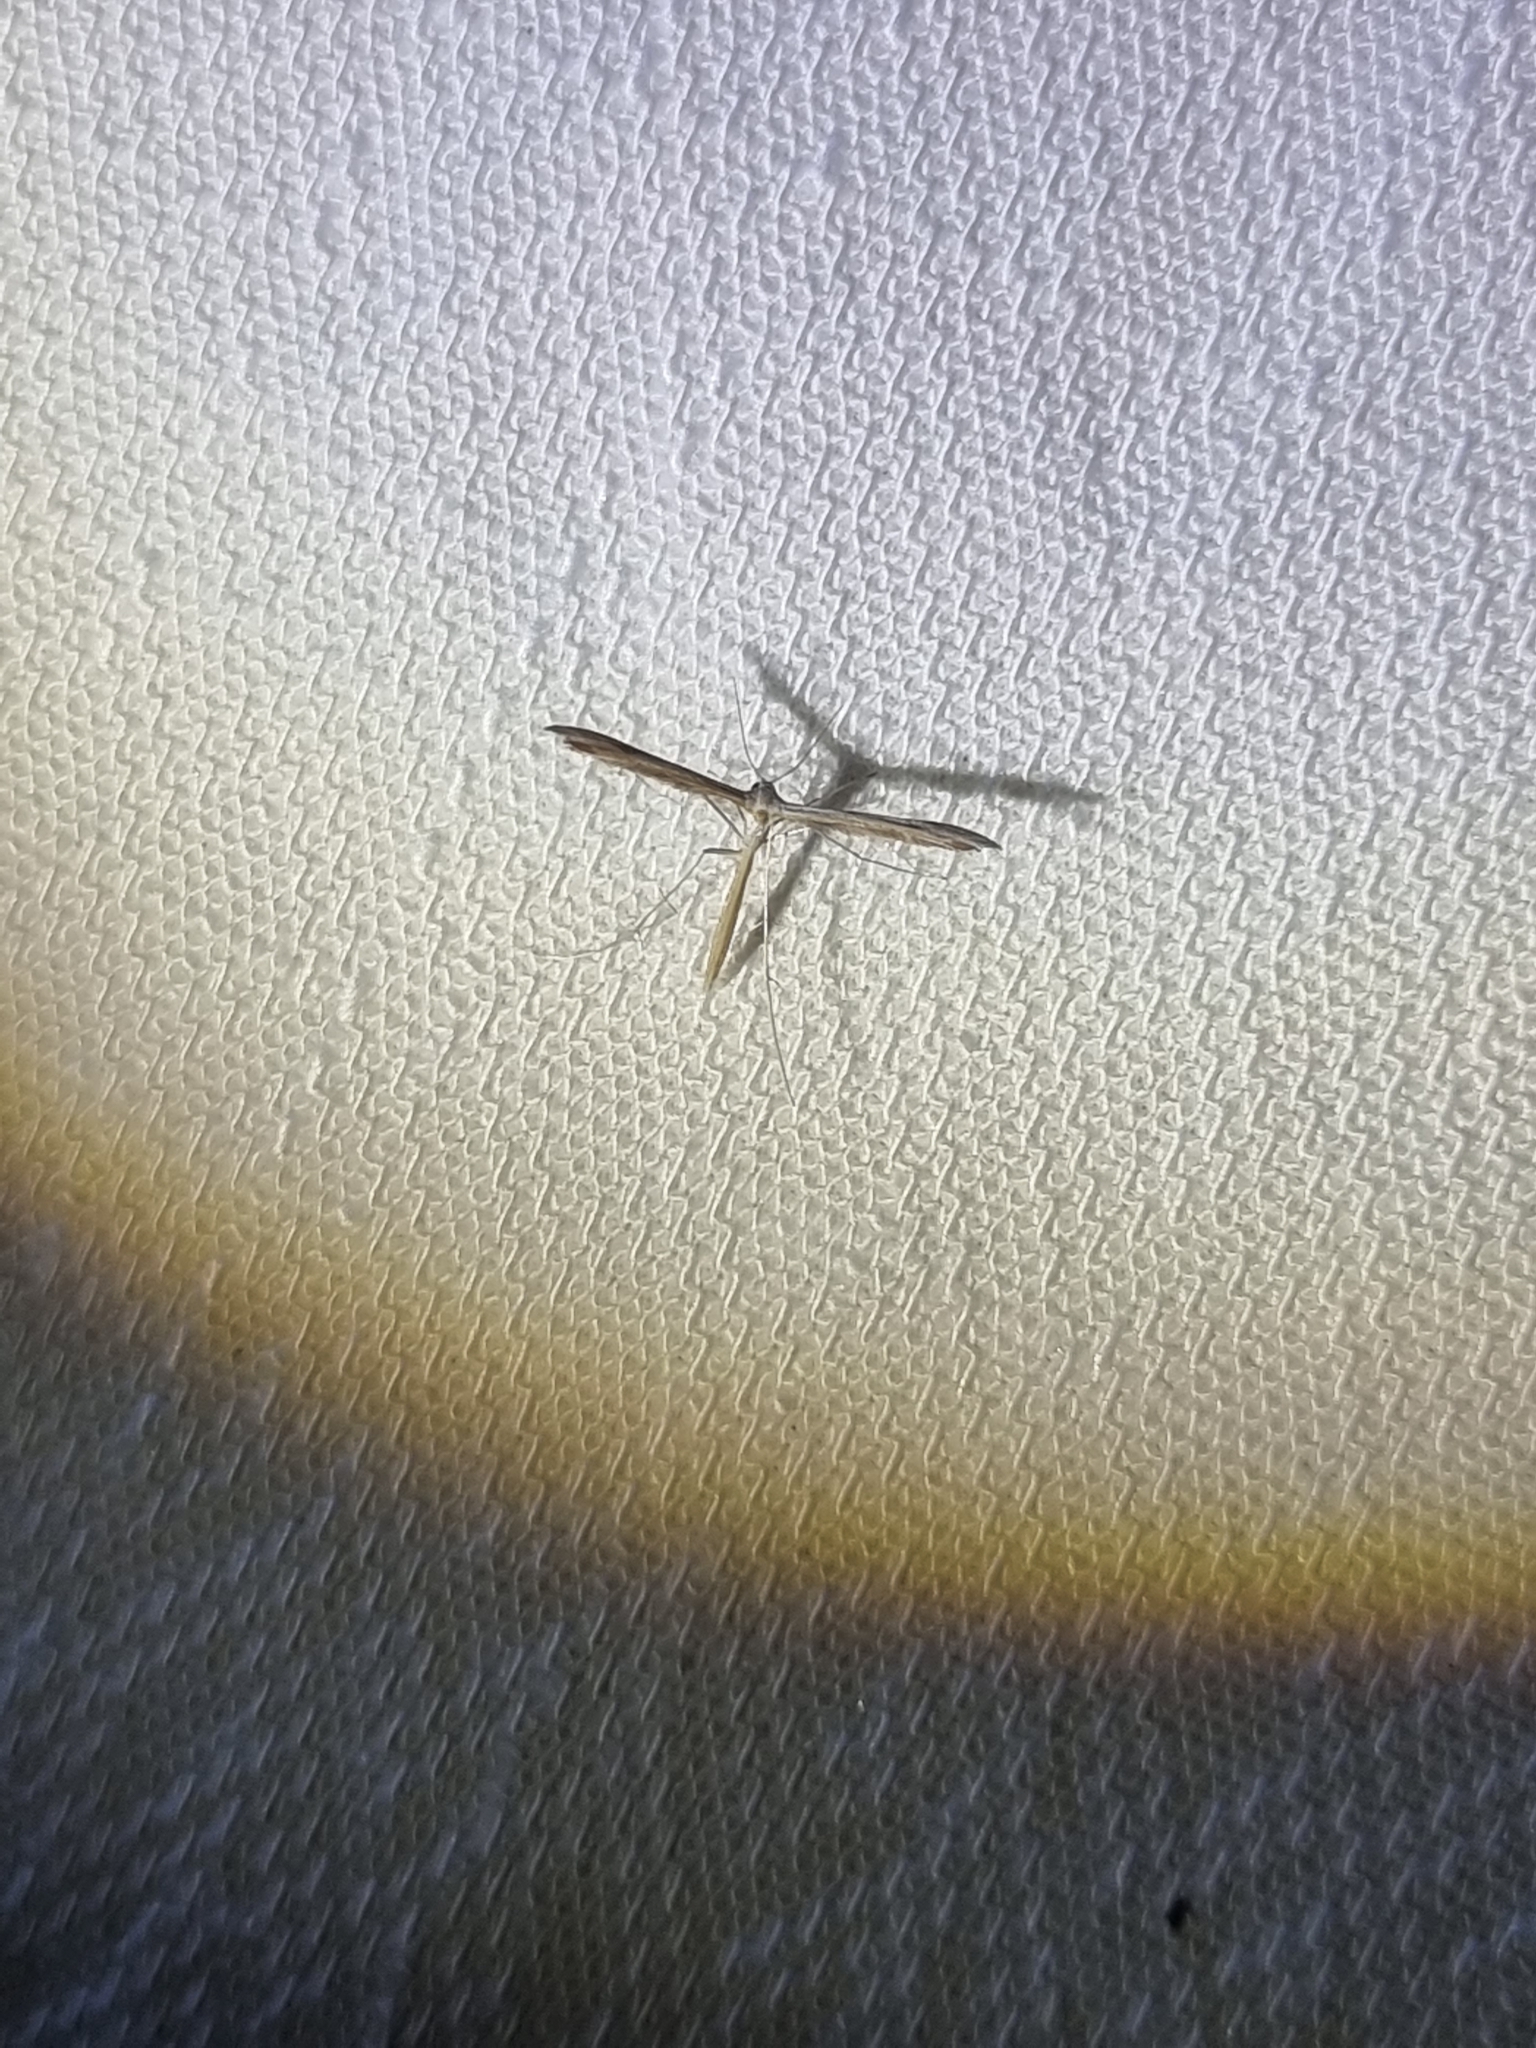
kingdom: Animalia
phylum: Arthropoda
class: Insecta
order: Lepidoptera
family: Pterophoridae
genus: Stenoptilia
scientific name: Stenoptilia zophodactylus
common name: Dowdy plume
